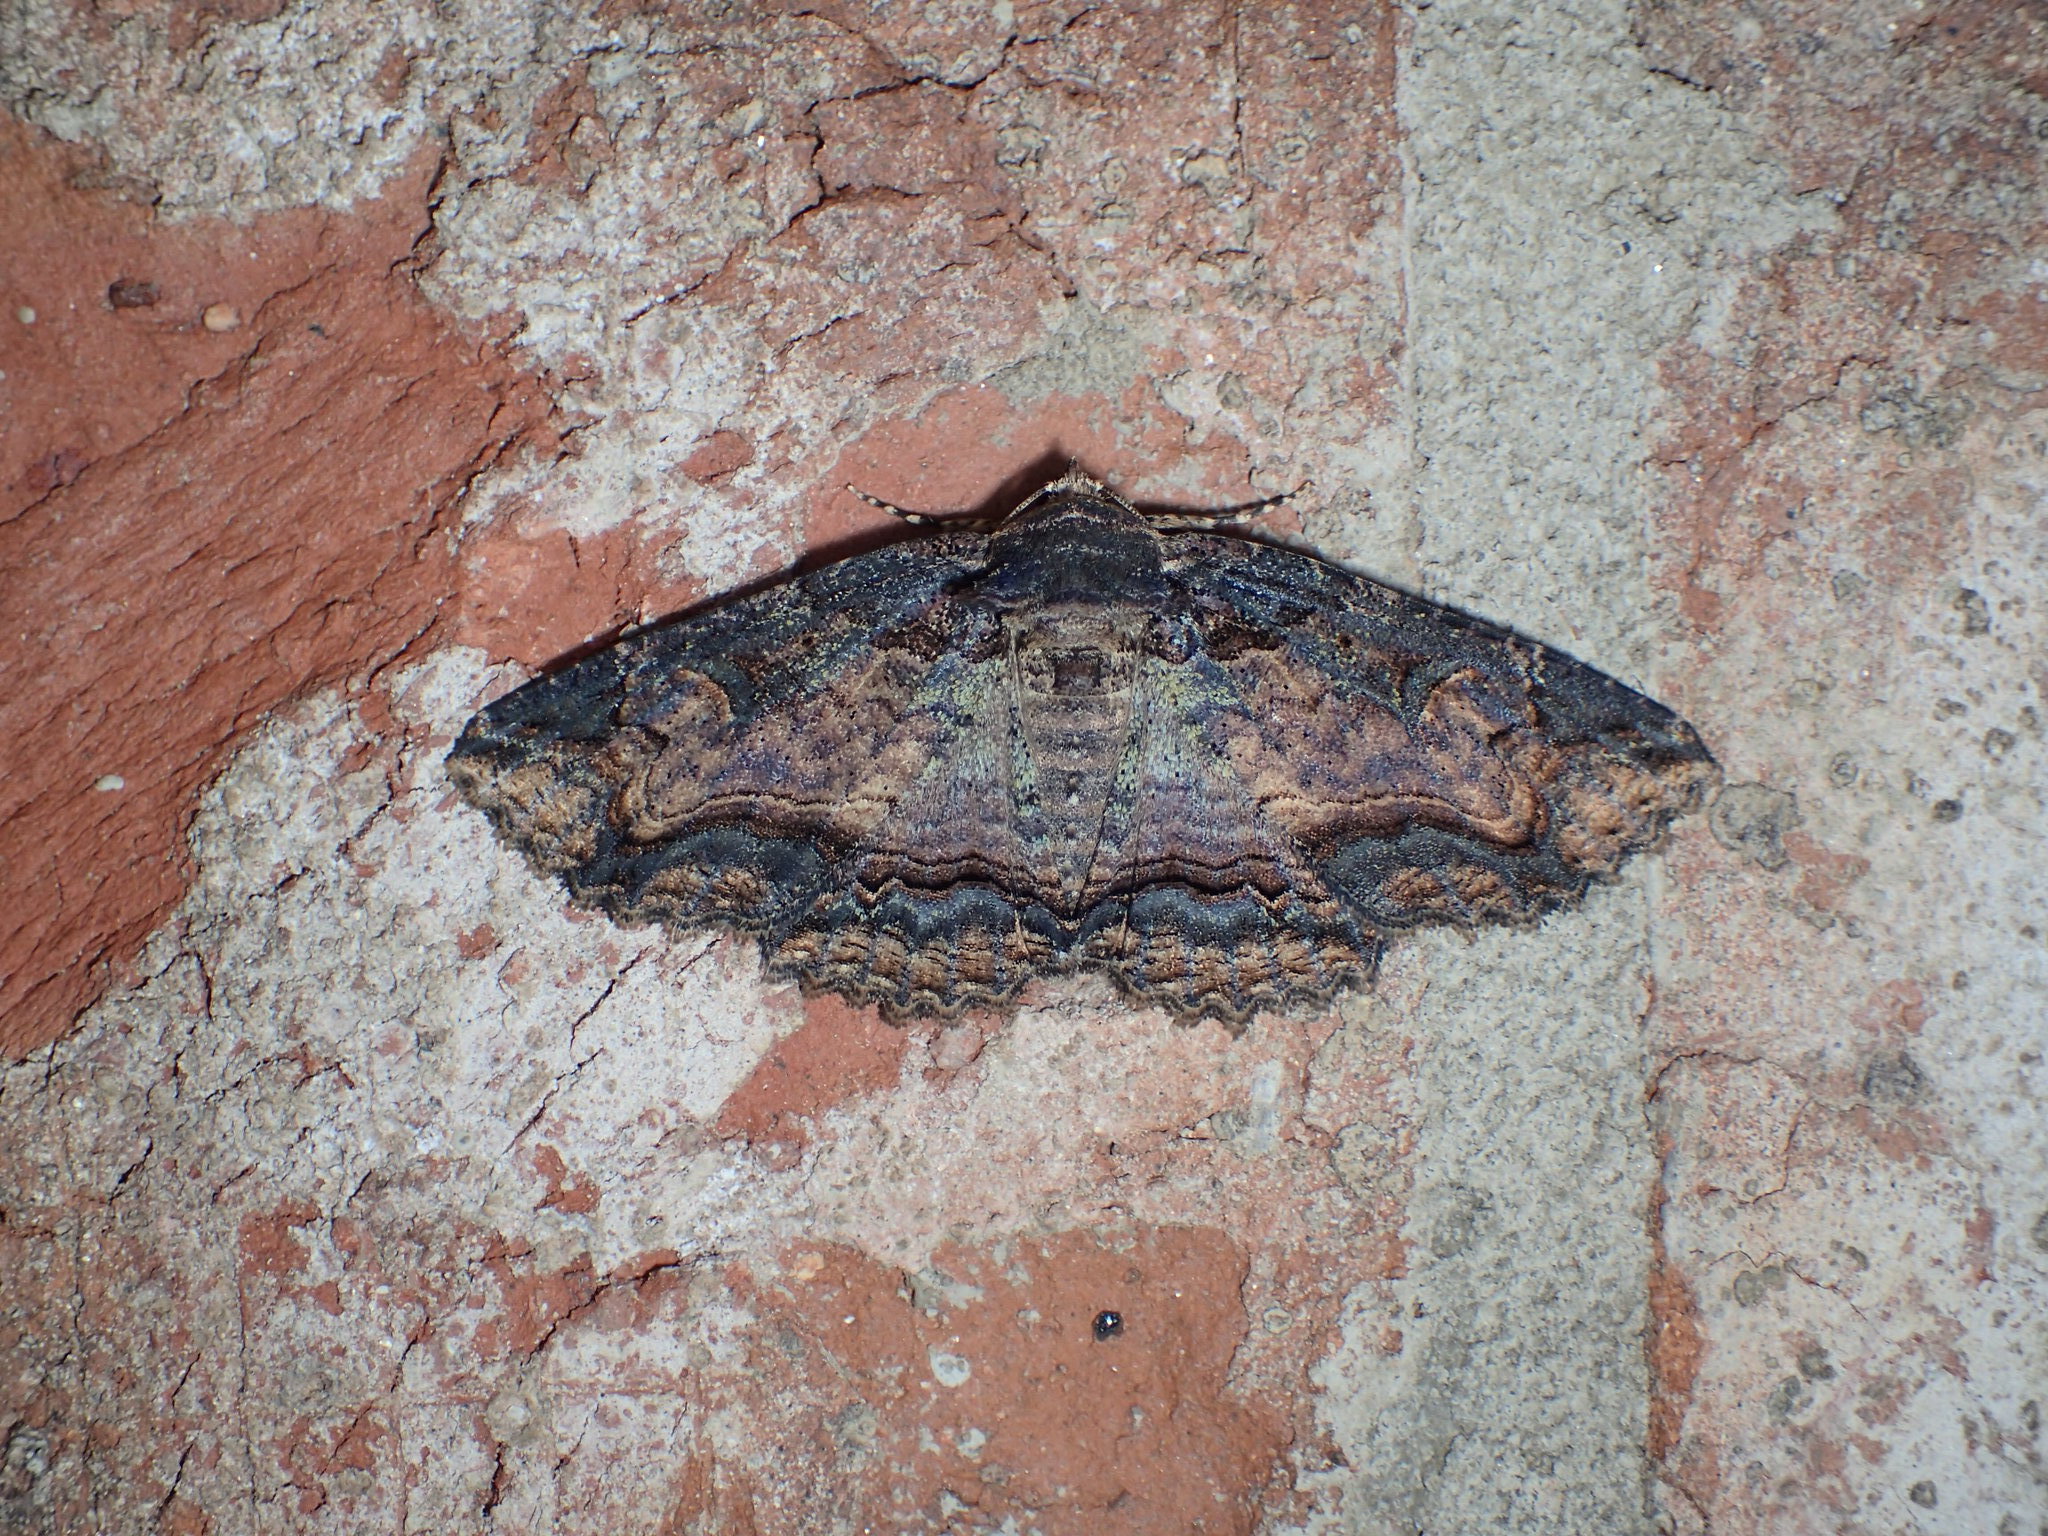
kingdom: Animalia
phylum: Arthropoda
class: Insecta
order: Lepidoptera
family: Erebidae
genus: Zale
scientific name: Zale minerea
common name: Colorful zale moth
